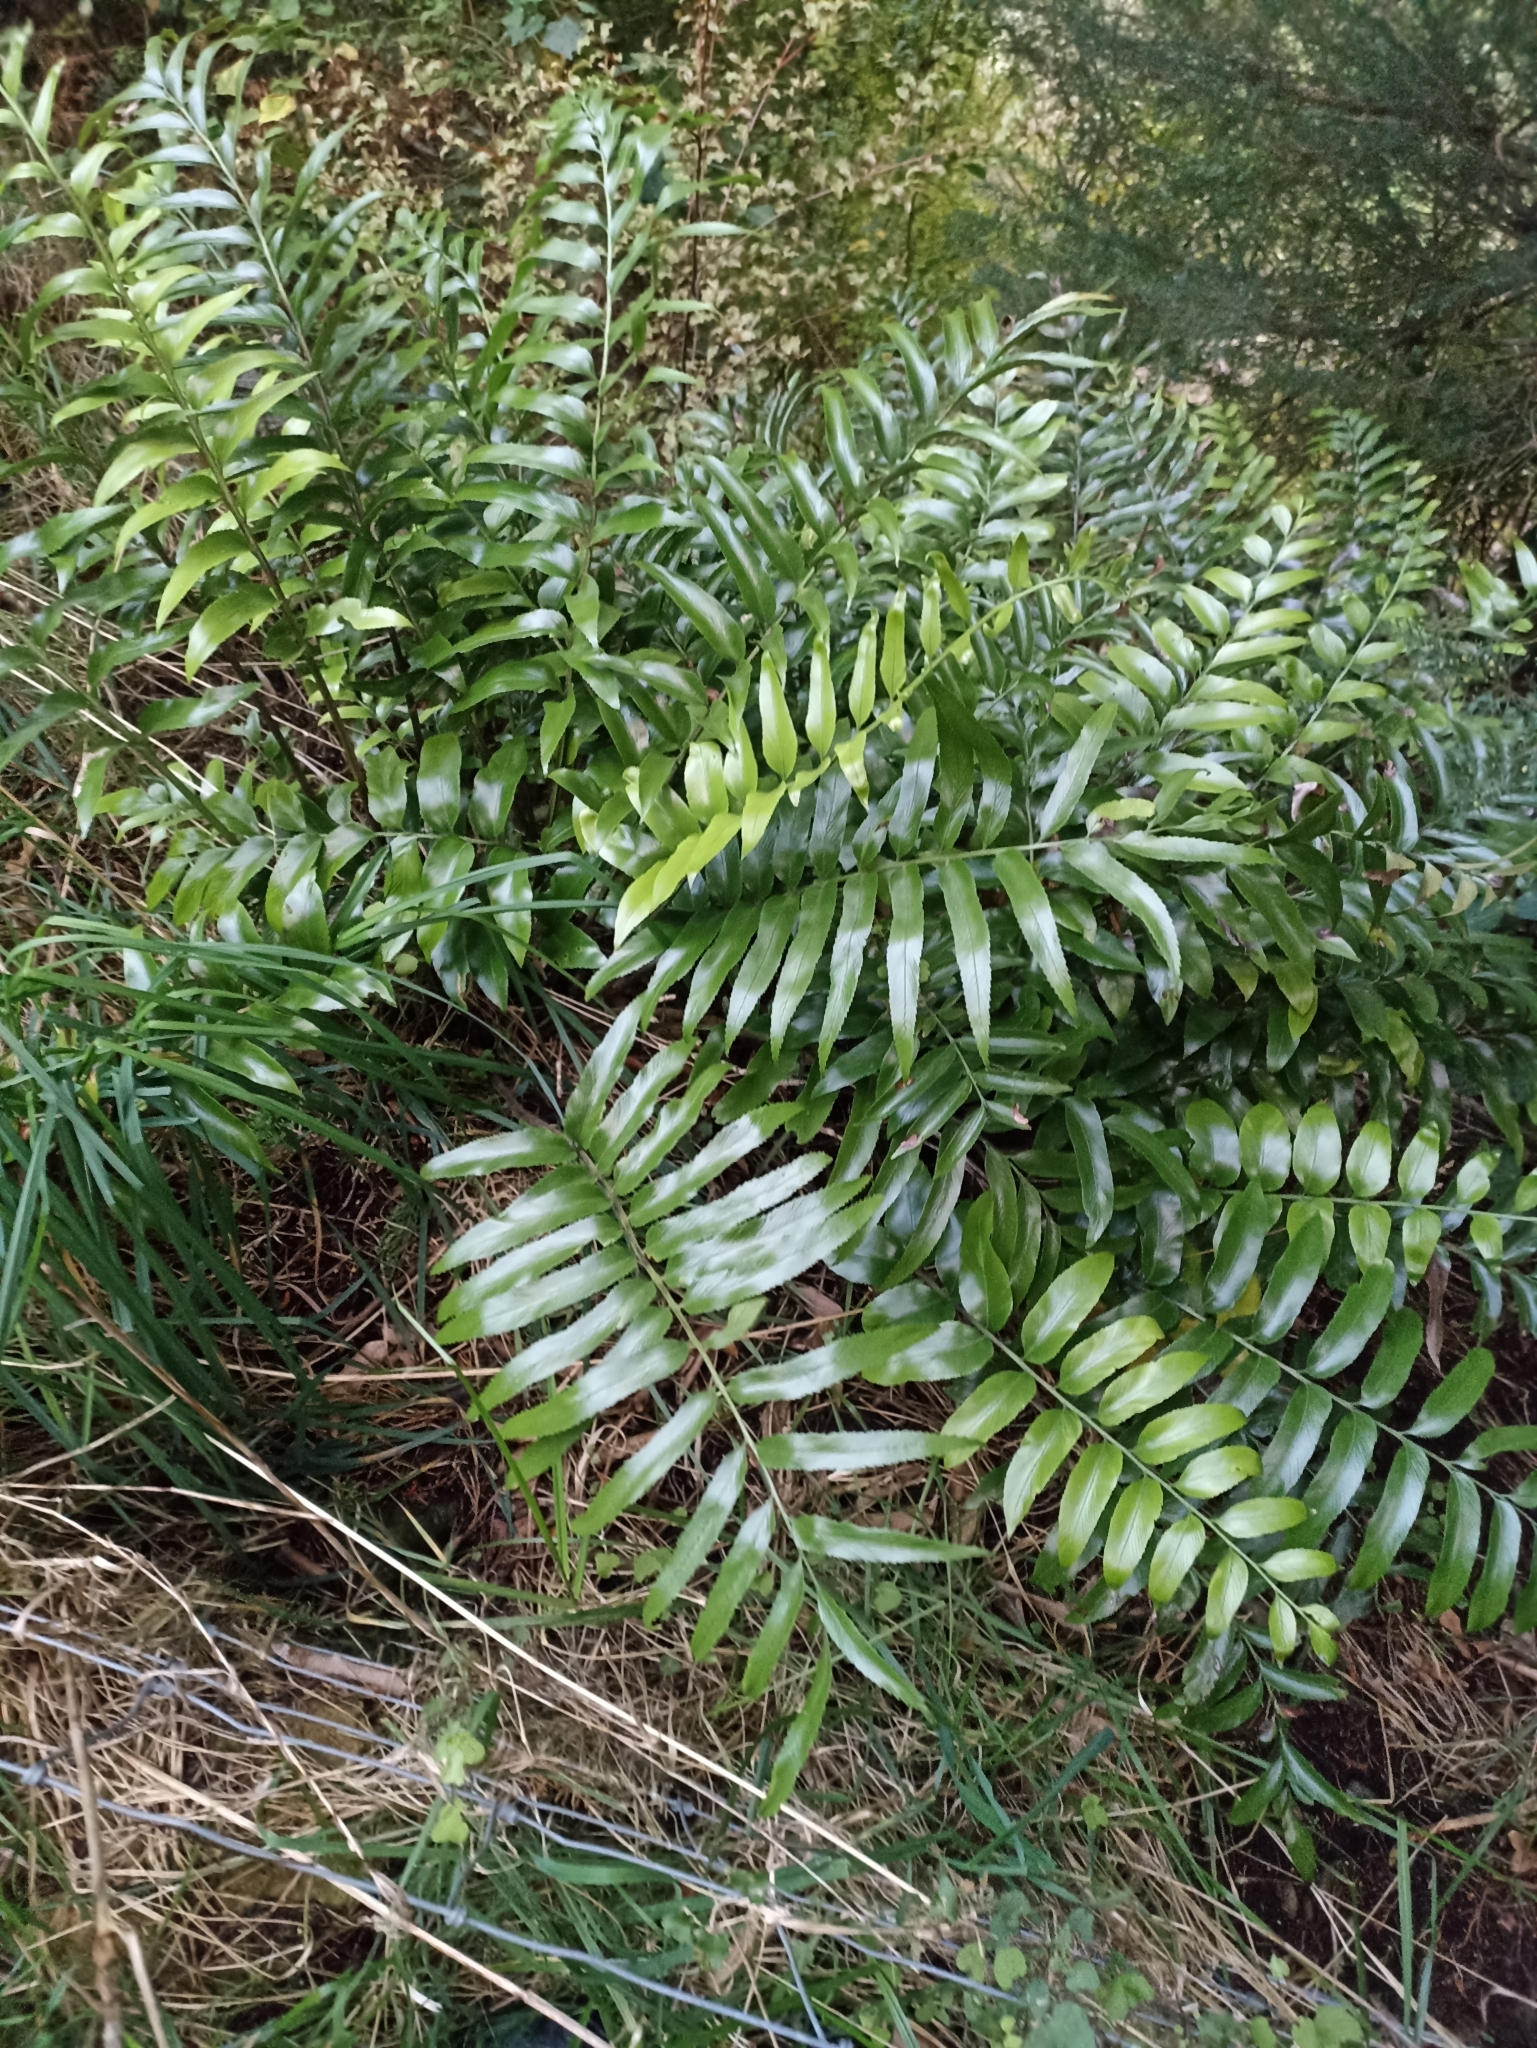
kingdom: Plantae
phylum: Tracheophyta
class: Polypodiopsida
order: Polypodiales
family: Aspleniaceae
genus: Asplenium
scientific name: Asplenium oblongifolium
